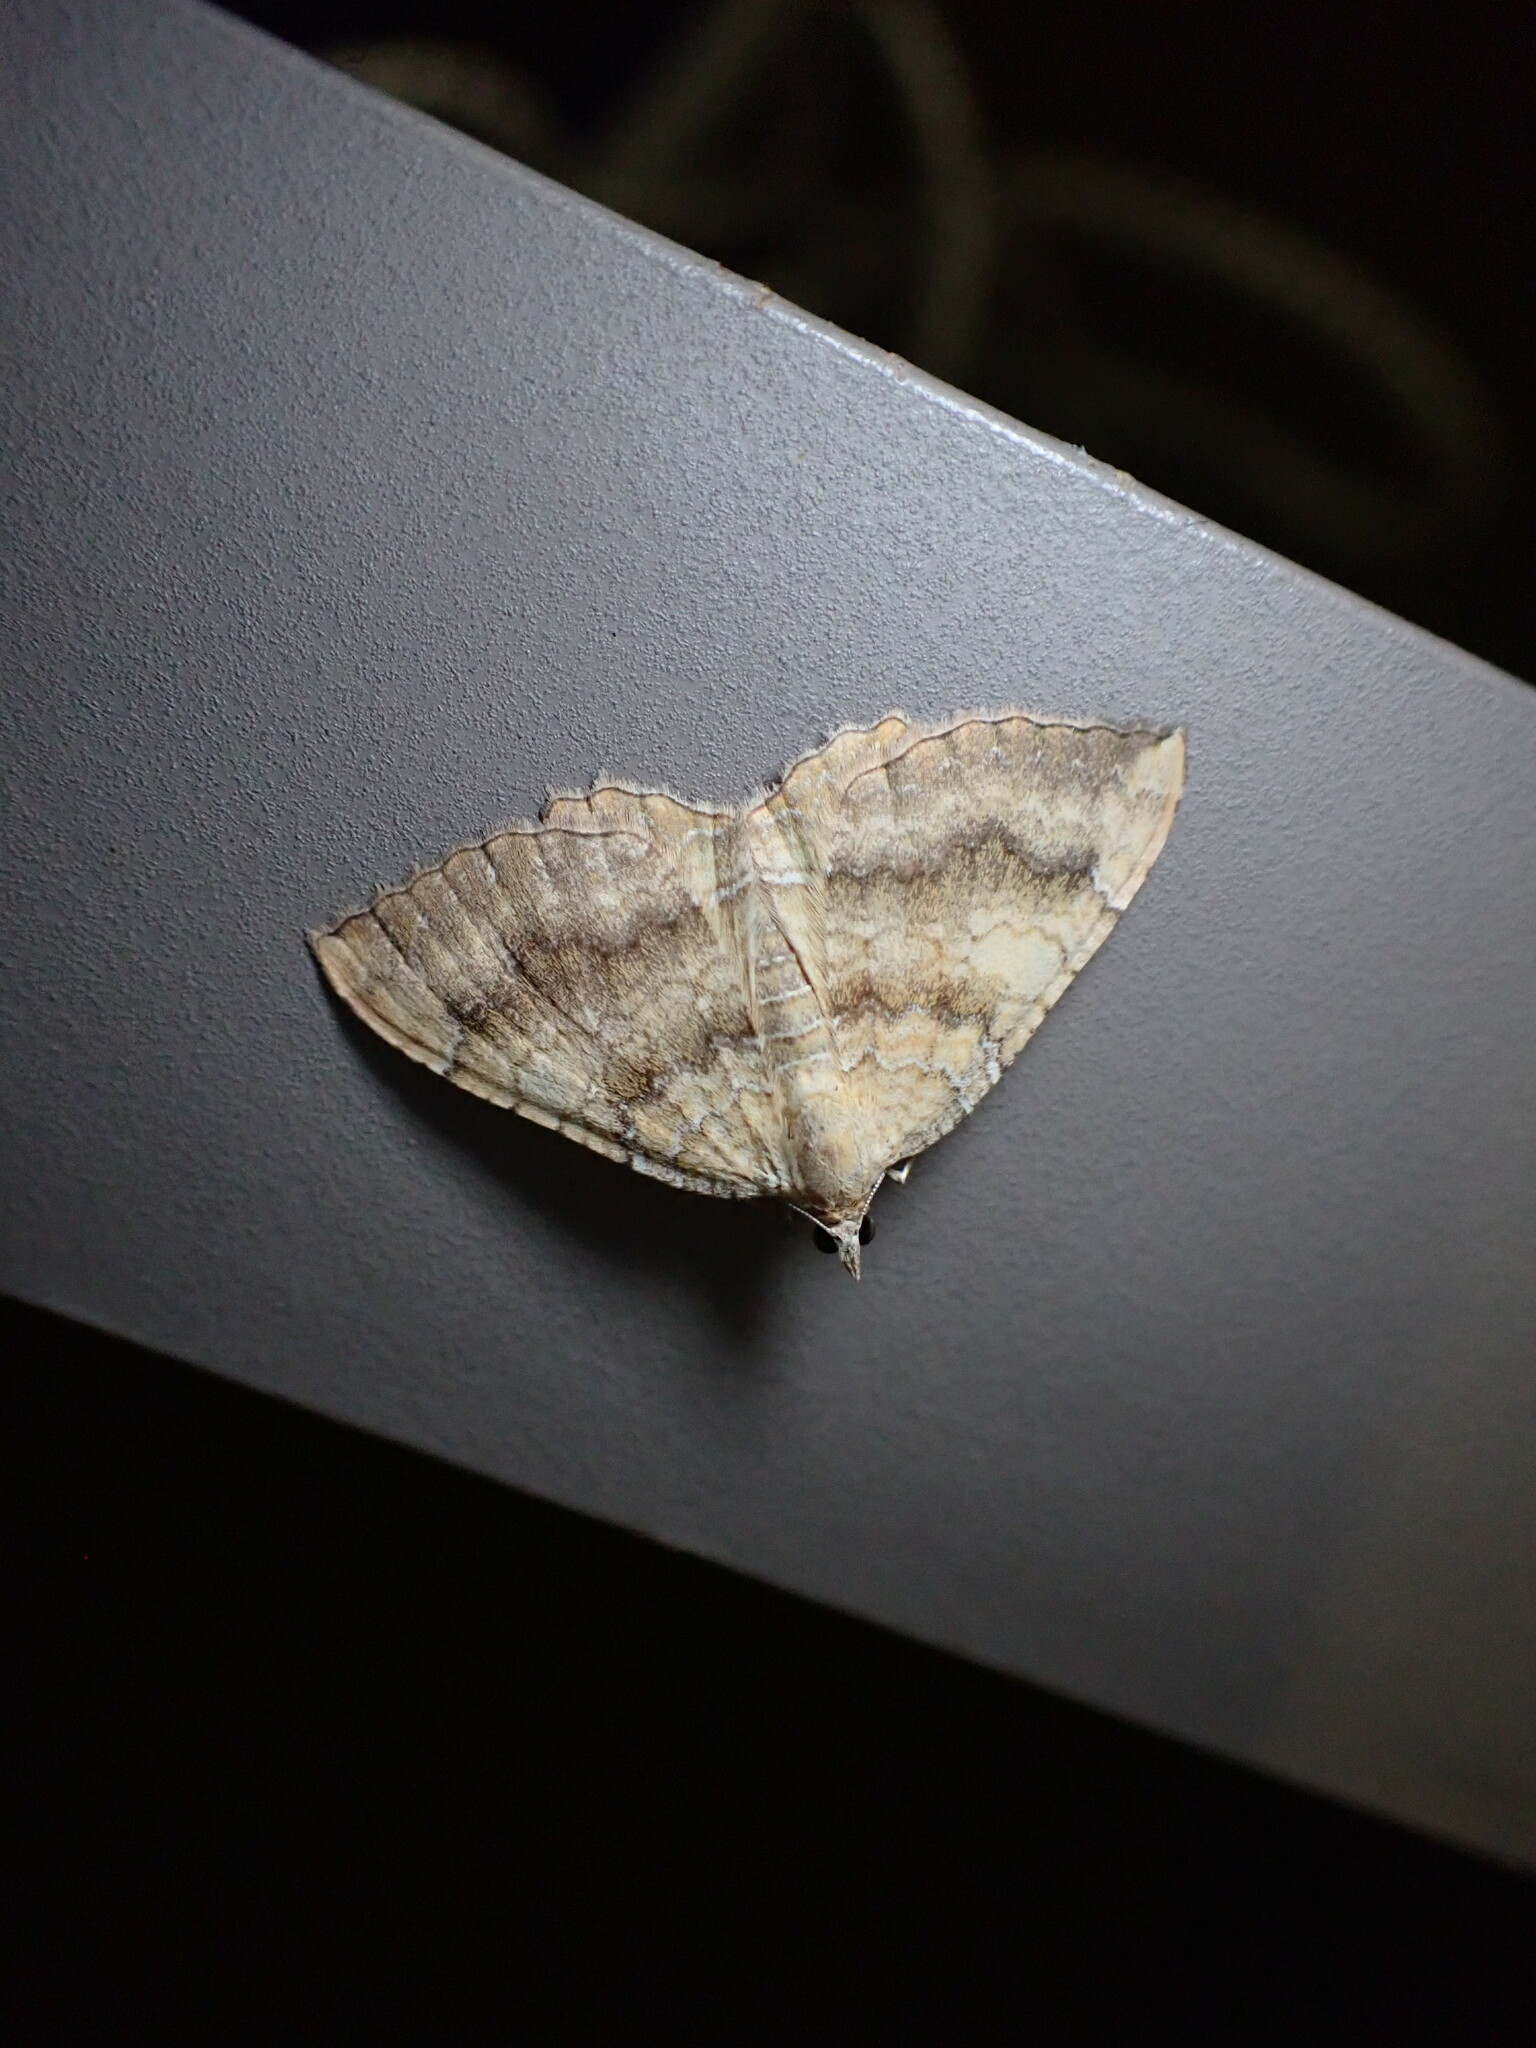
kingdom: Animalia
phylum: Arthropoda
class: Insecta
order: Lepidoptera
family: Geometridae
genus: Camptogramma
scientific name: Camptogramma bilineata
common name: Yellow shell
